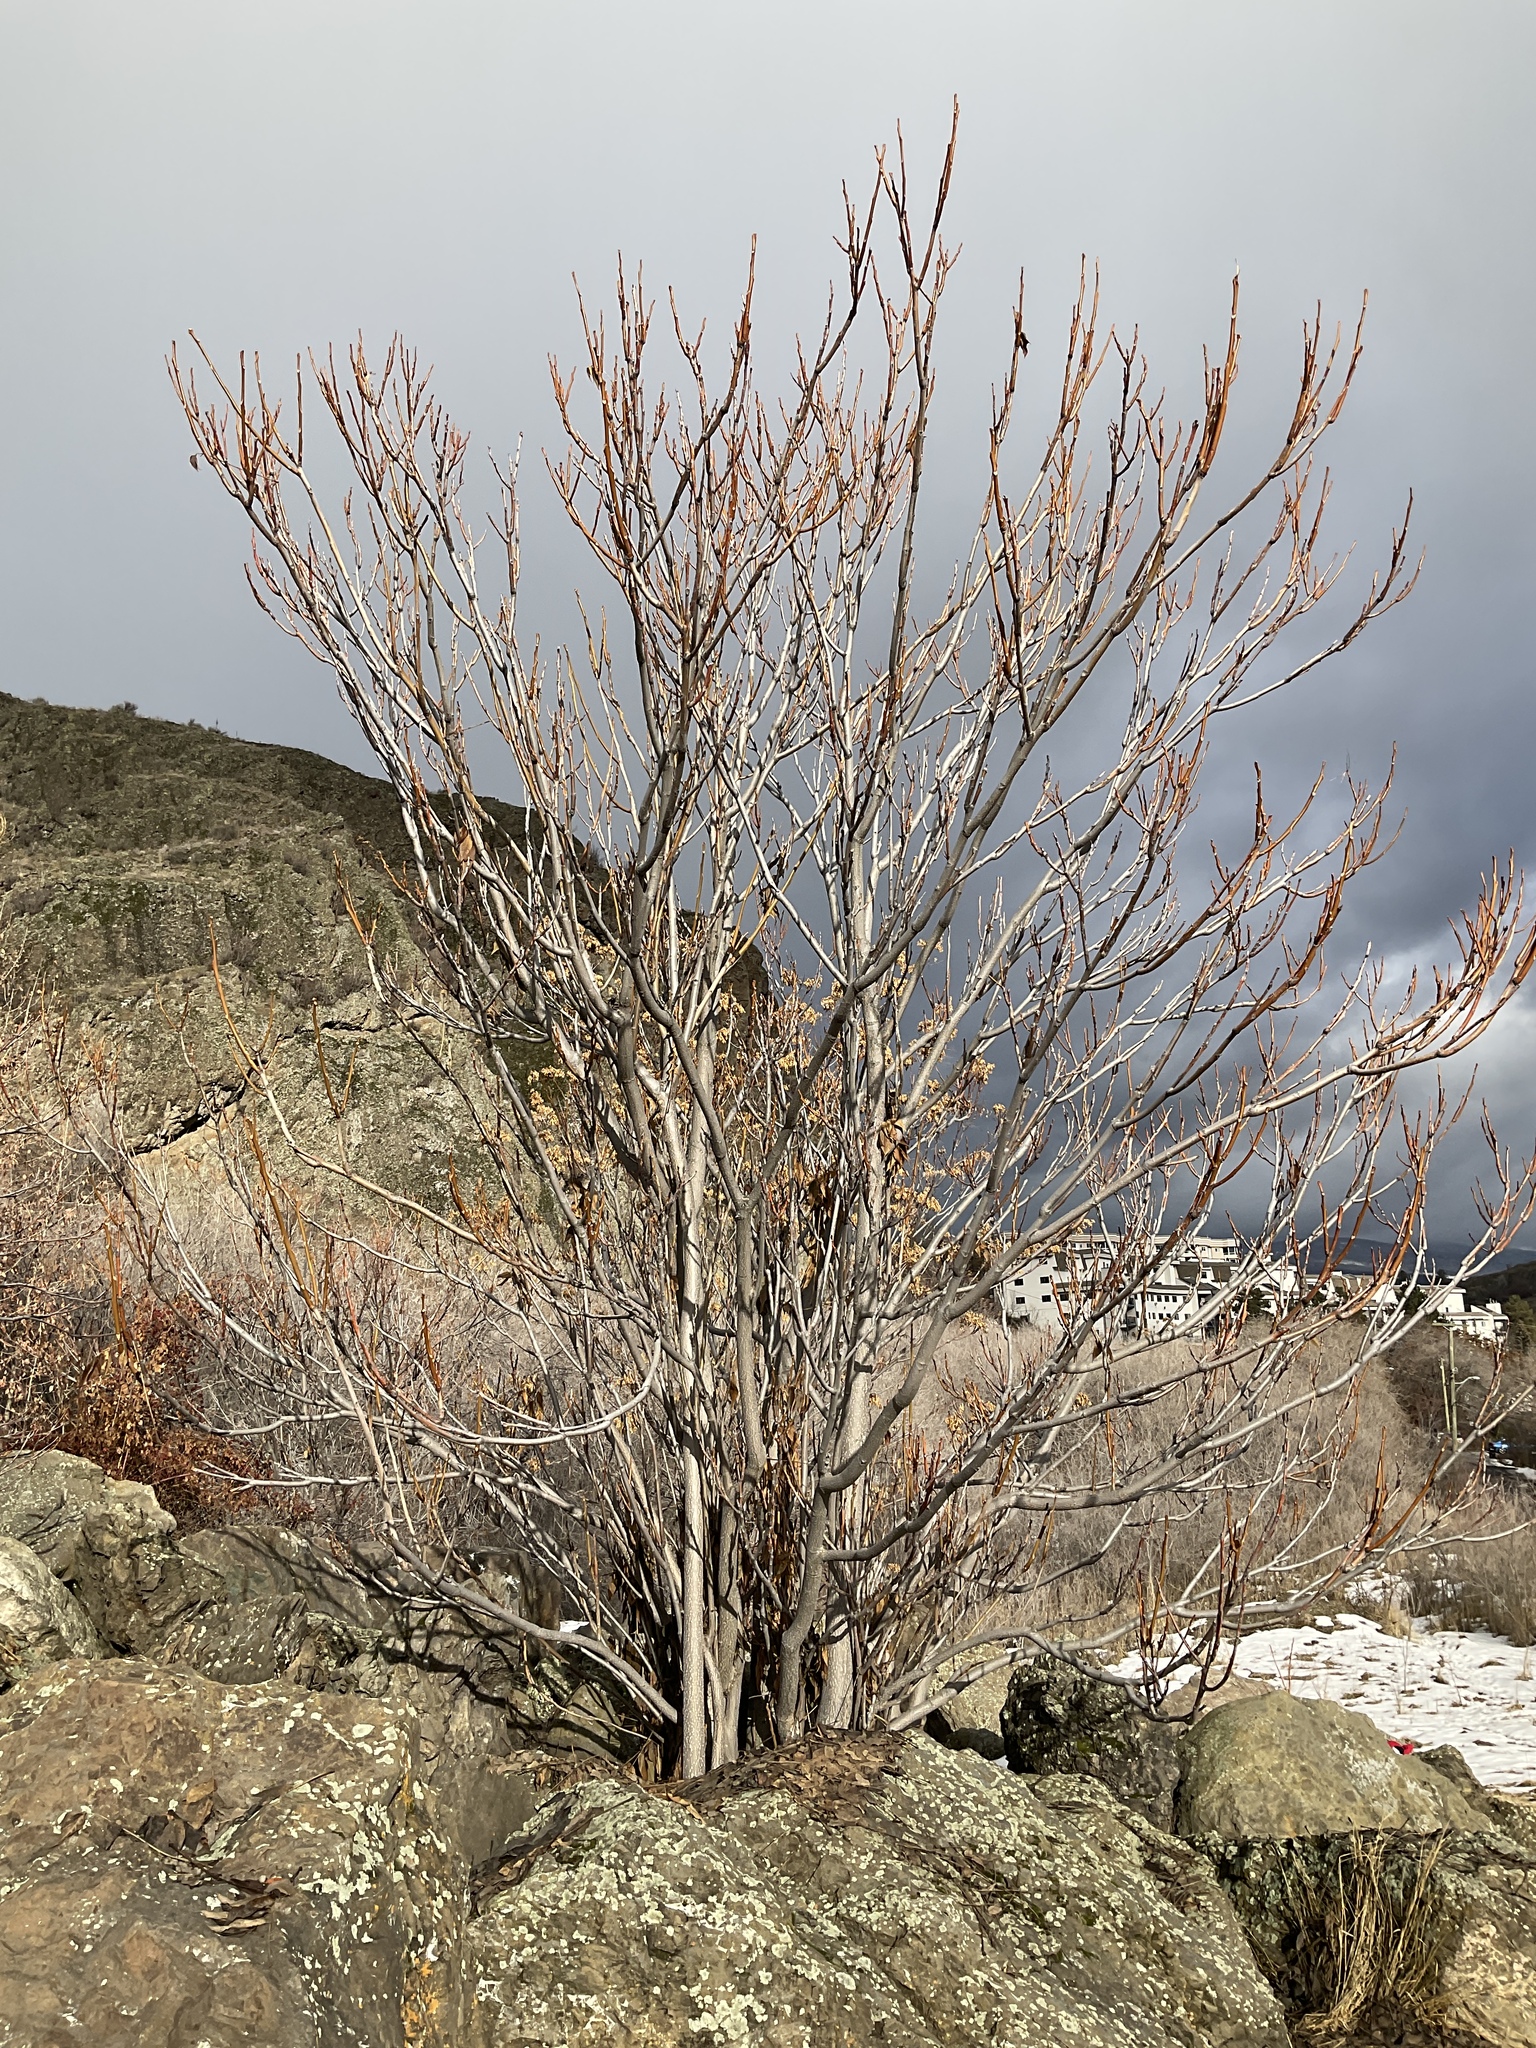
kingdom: Plantae
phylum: Tracheophyta
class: Magnoliopsida
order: Sapindales
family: Simaroubaceae
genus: Ailanthus
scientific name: Ailanthus altissima
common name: Tree-of-heaven
